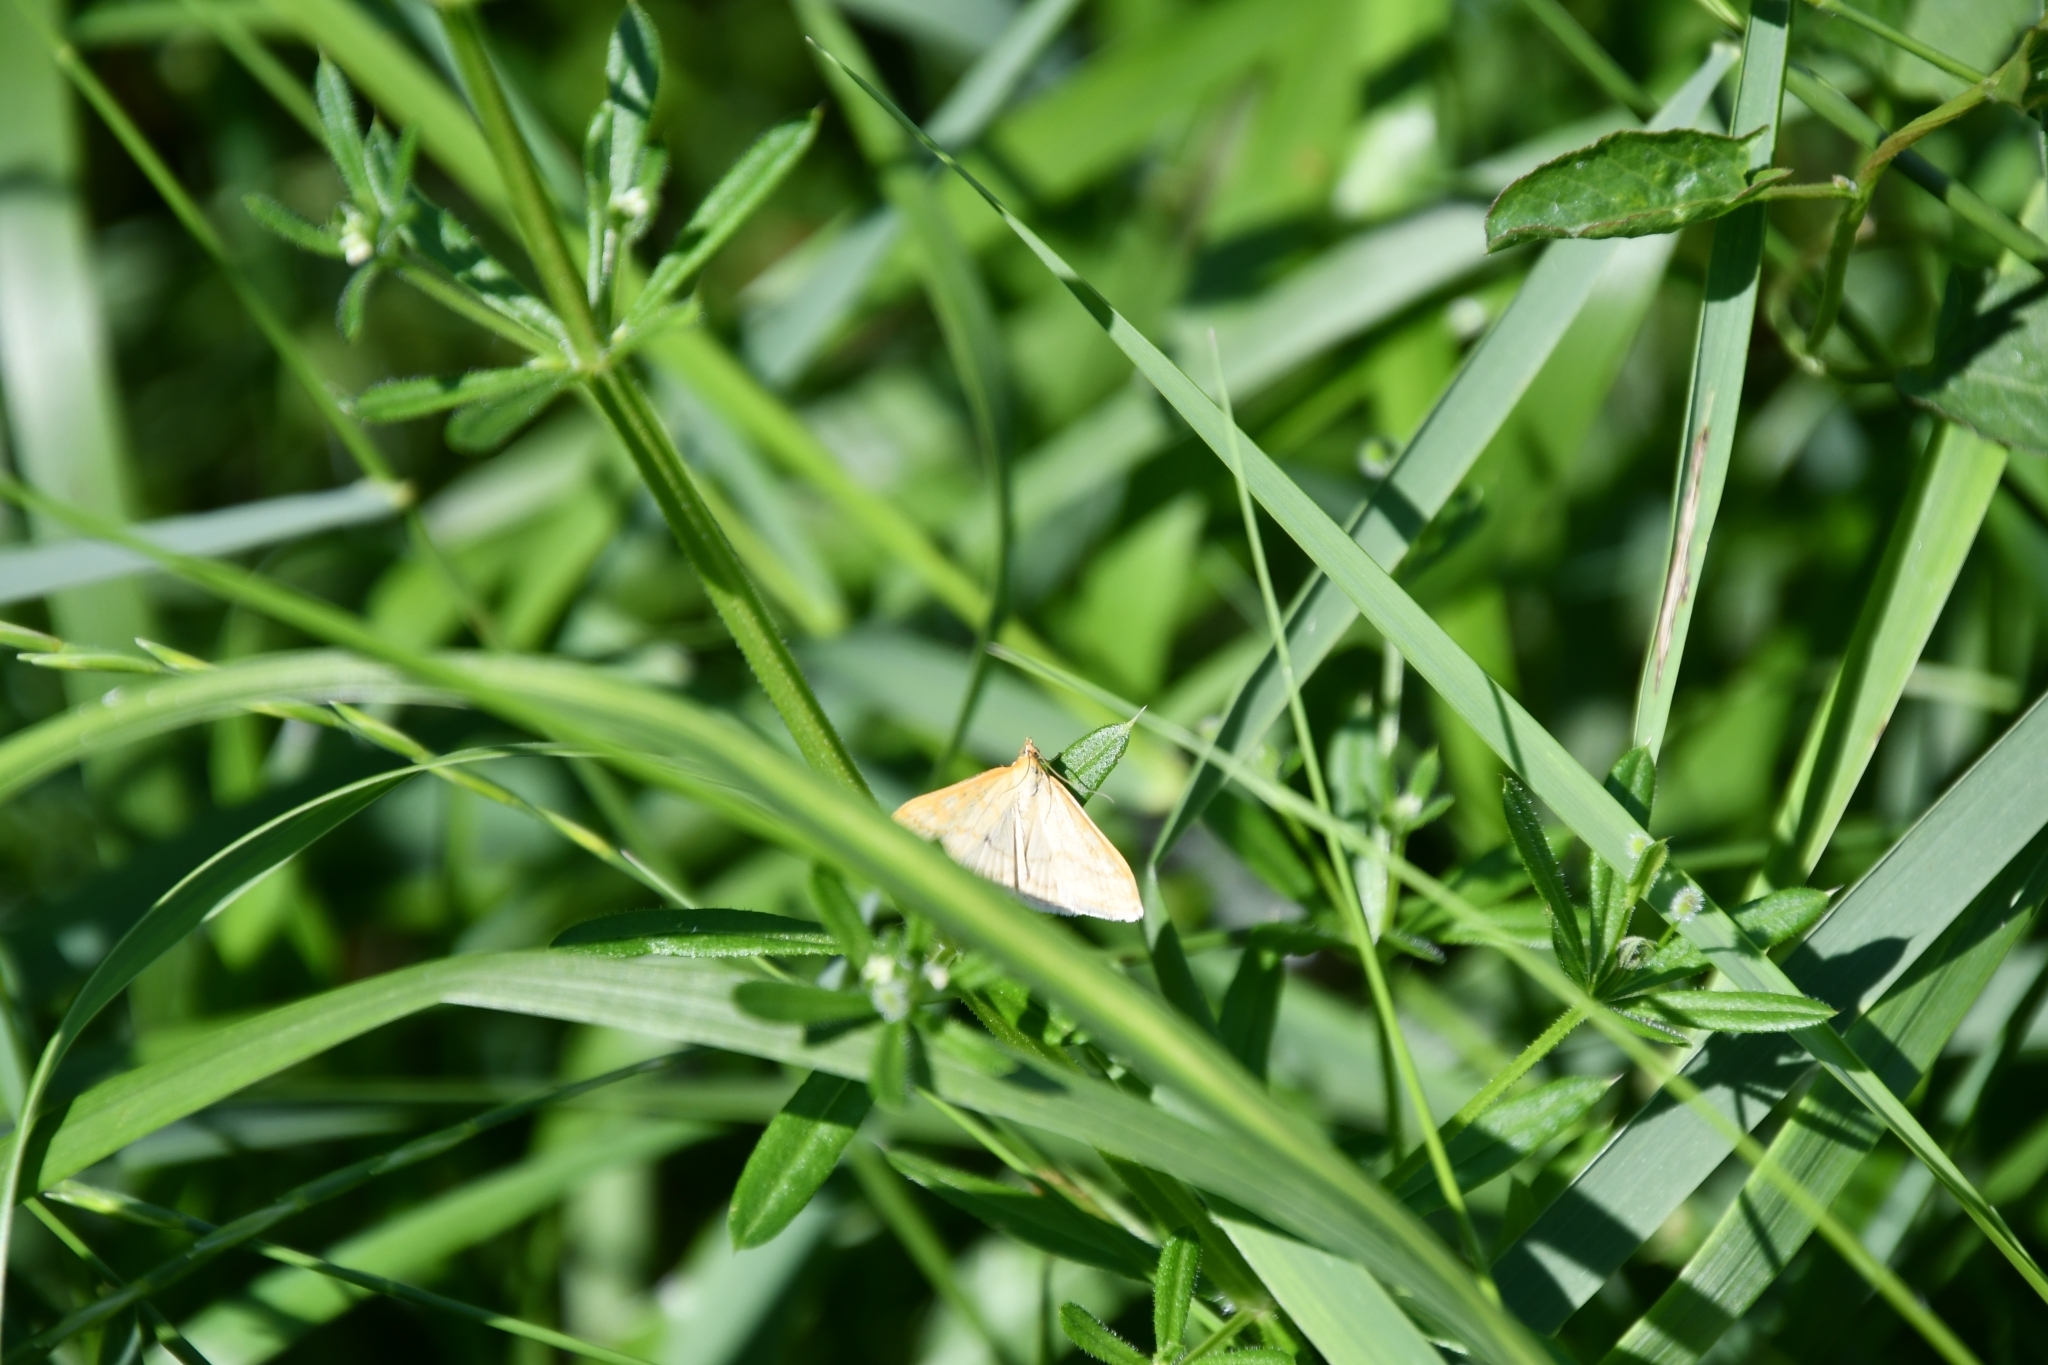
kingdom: Animalia
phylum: Arthropoda
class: Insecta
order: Lepidoptera
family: Crambidae
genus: Sitochroa
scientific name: Sitochroa verticalis
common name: Lesser pearl
